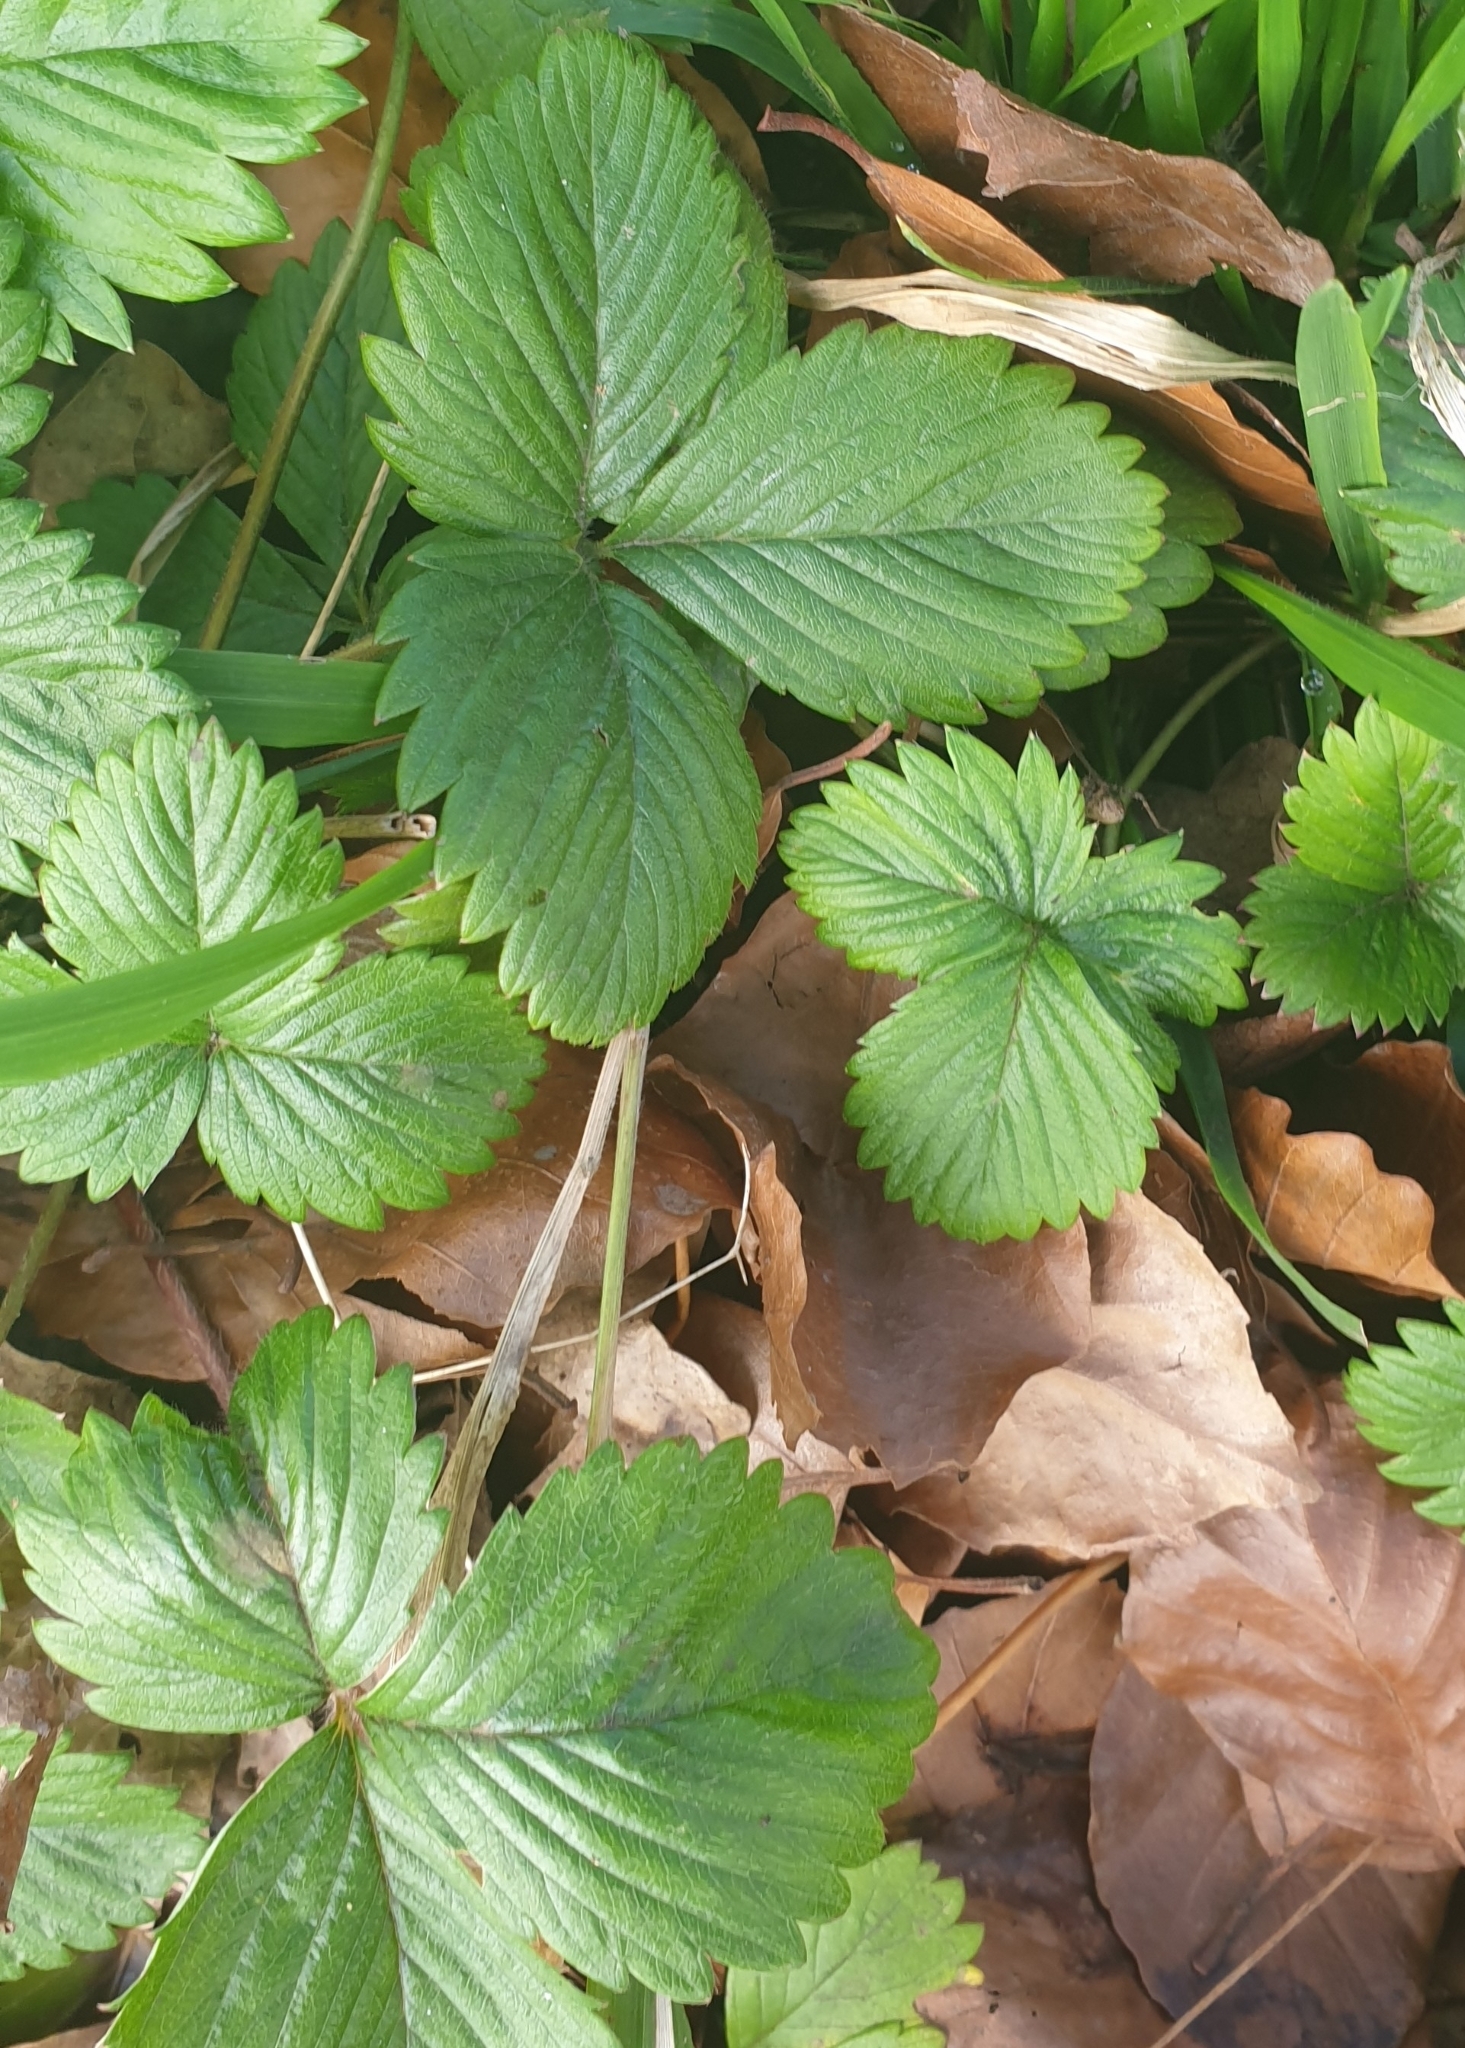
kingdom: Plantae
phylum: Tracheophyta
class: Magnoliopsida
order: Rosales
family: Rosaceae
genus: Fragaria
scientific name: Fragaria vesca
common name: Wild strawberry
